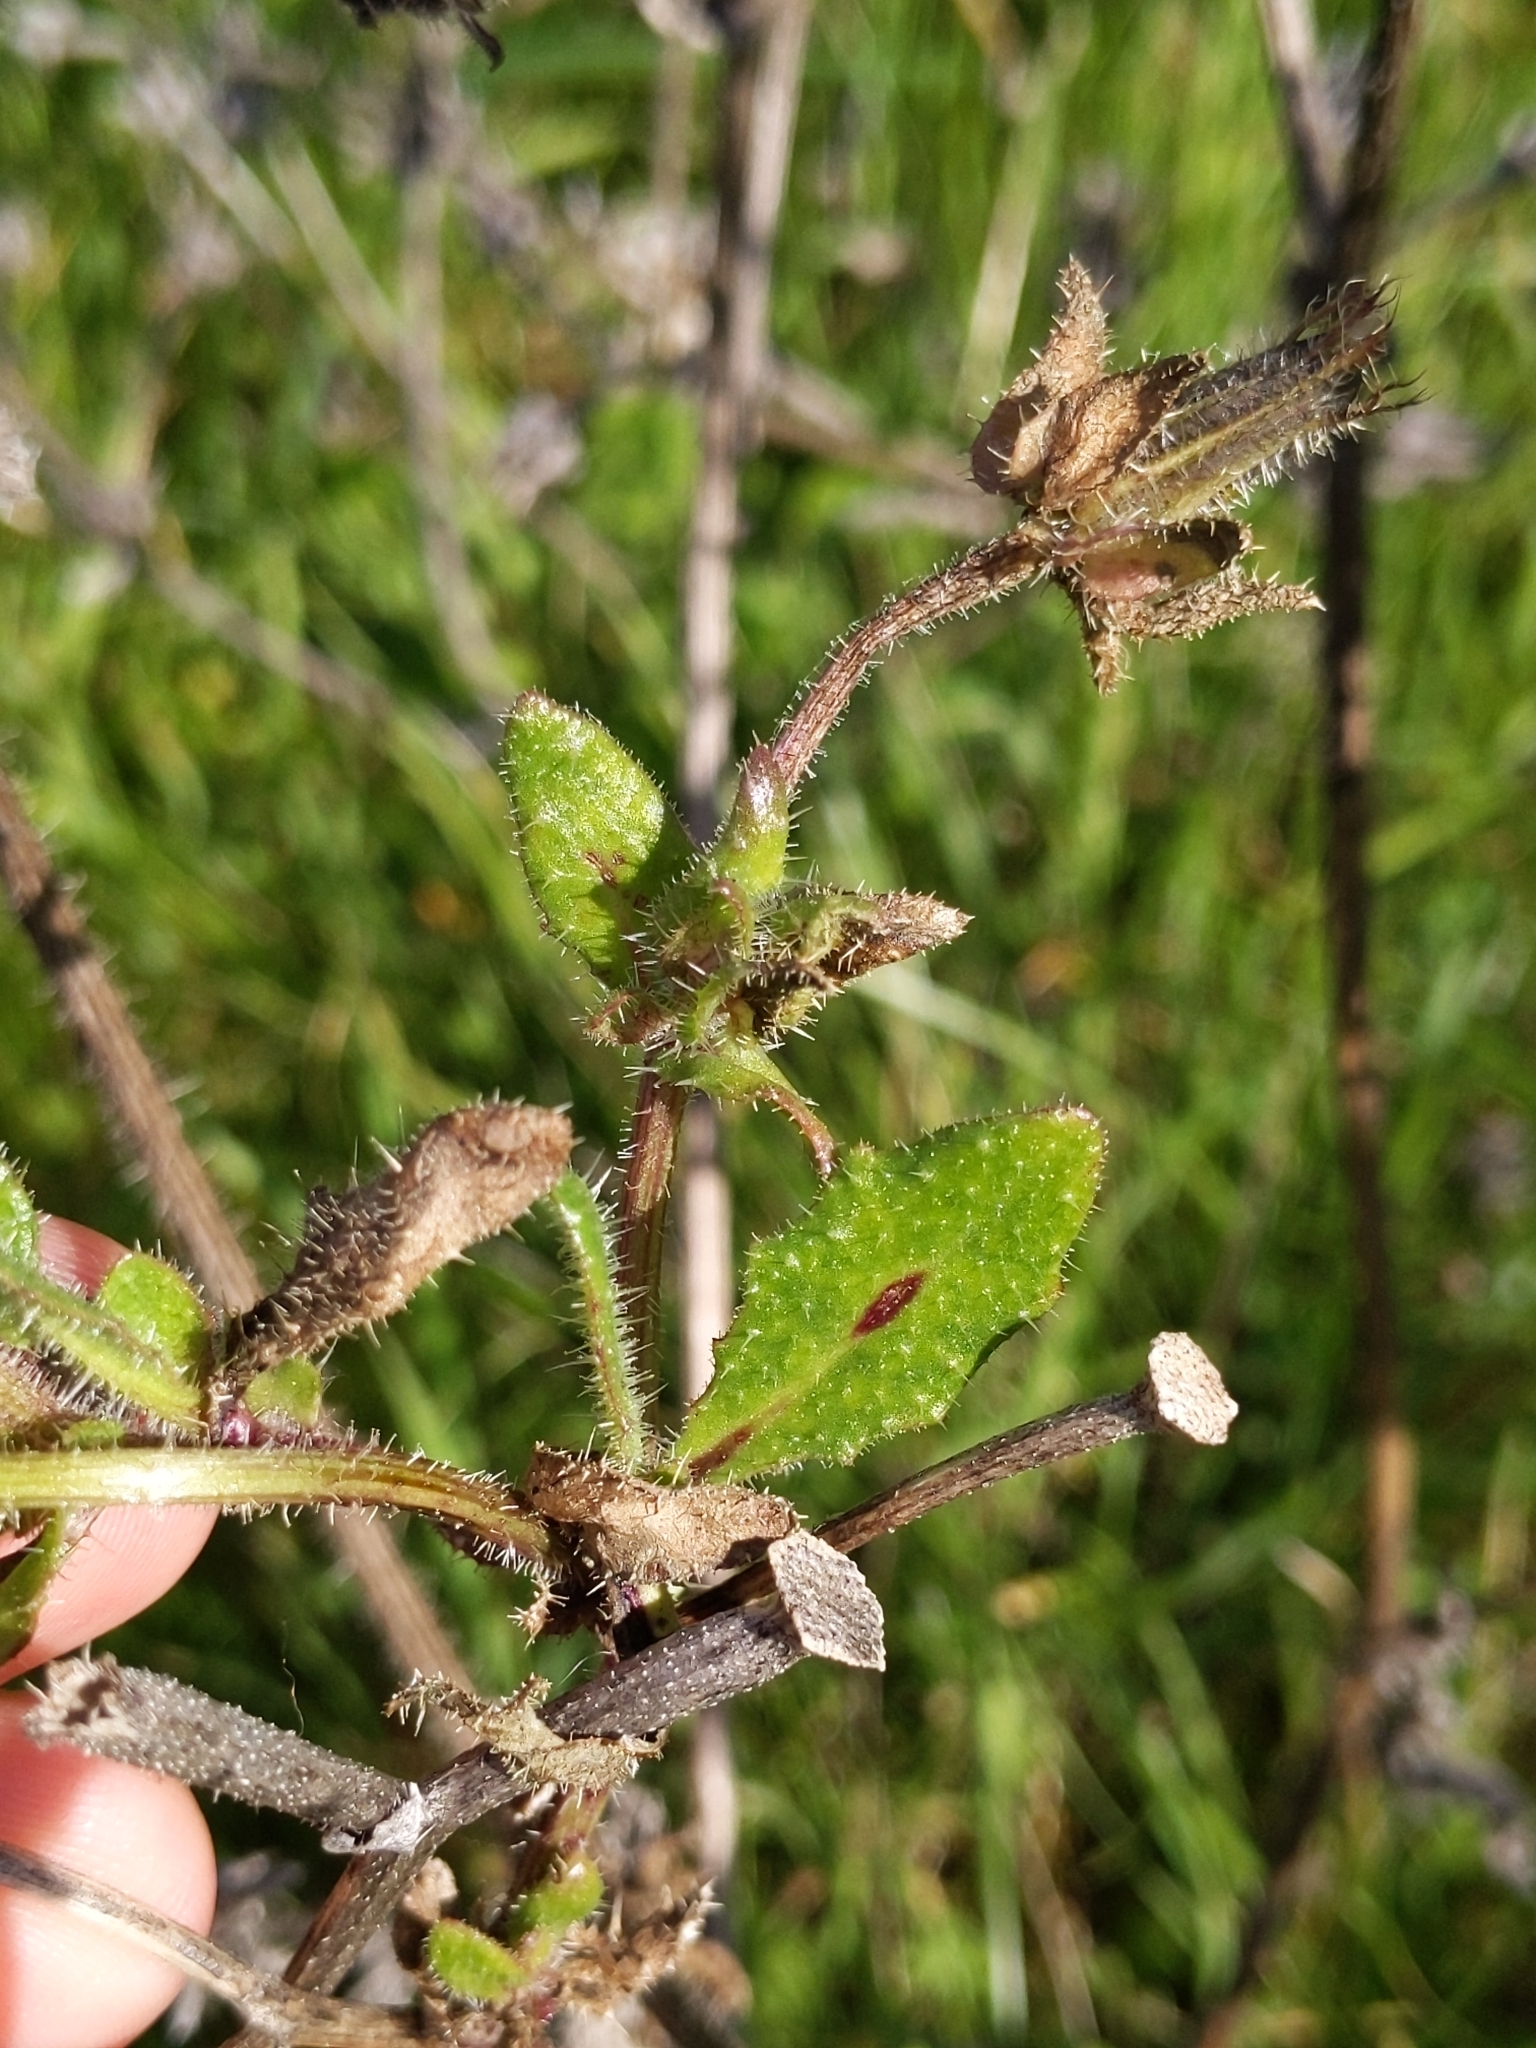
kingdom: Plantae
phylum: Tracheophyta
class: Magnoliopsida
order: Asterales
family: Asteraceae
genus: Helminthotheca
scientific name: Helminthotheca echioides
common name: Ox-tongue
